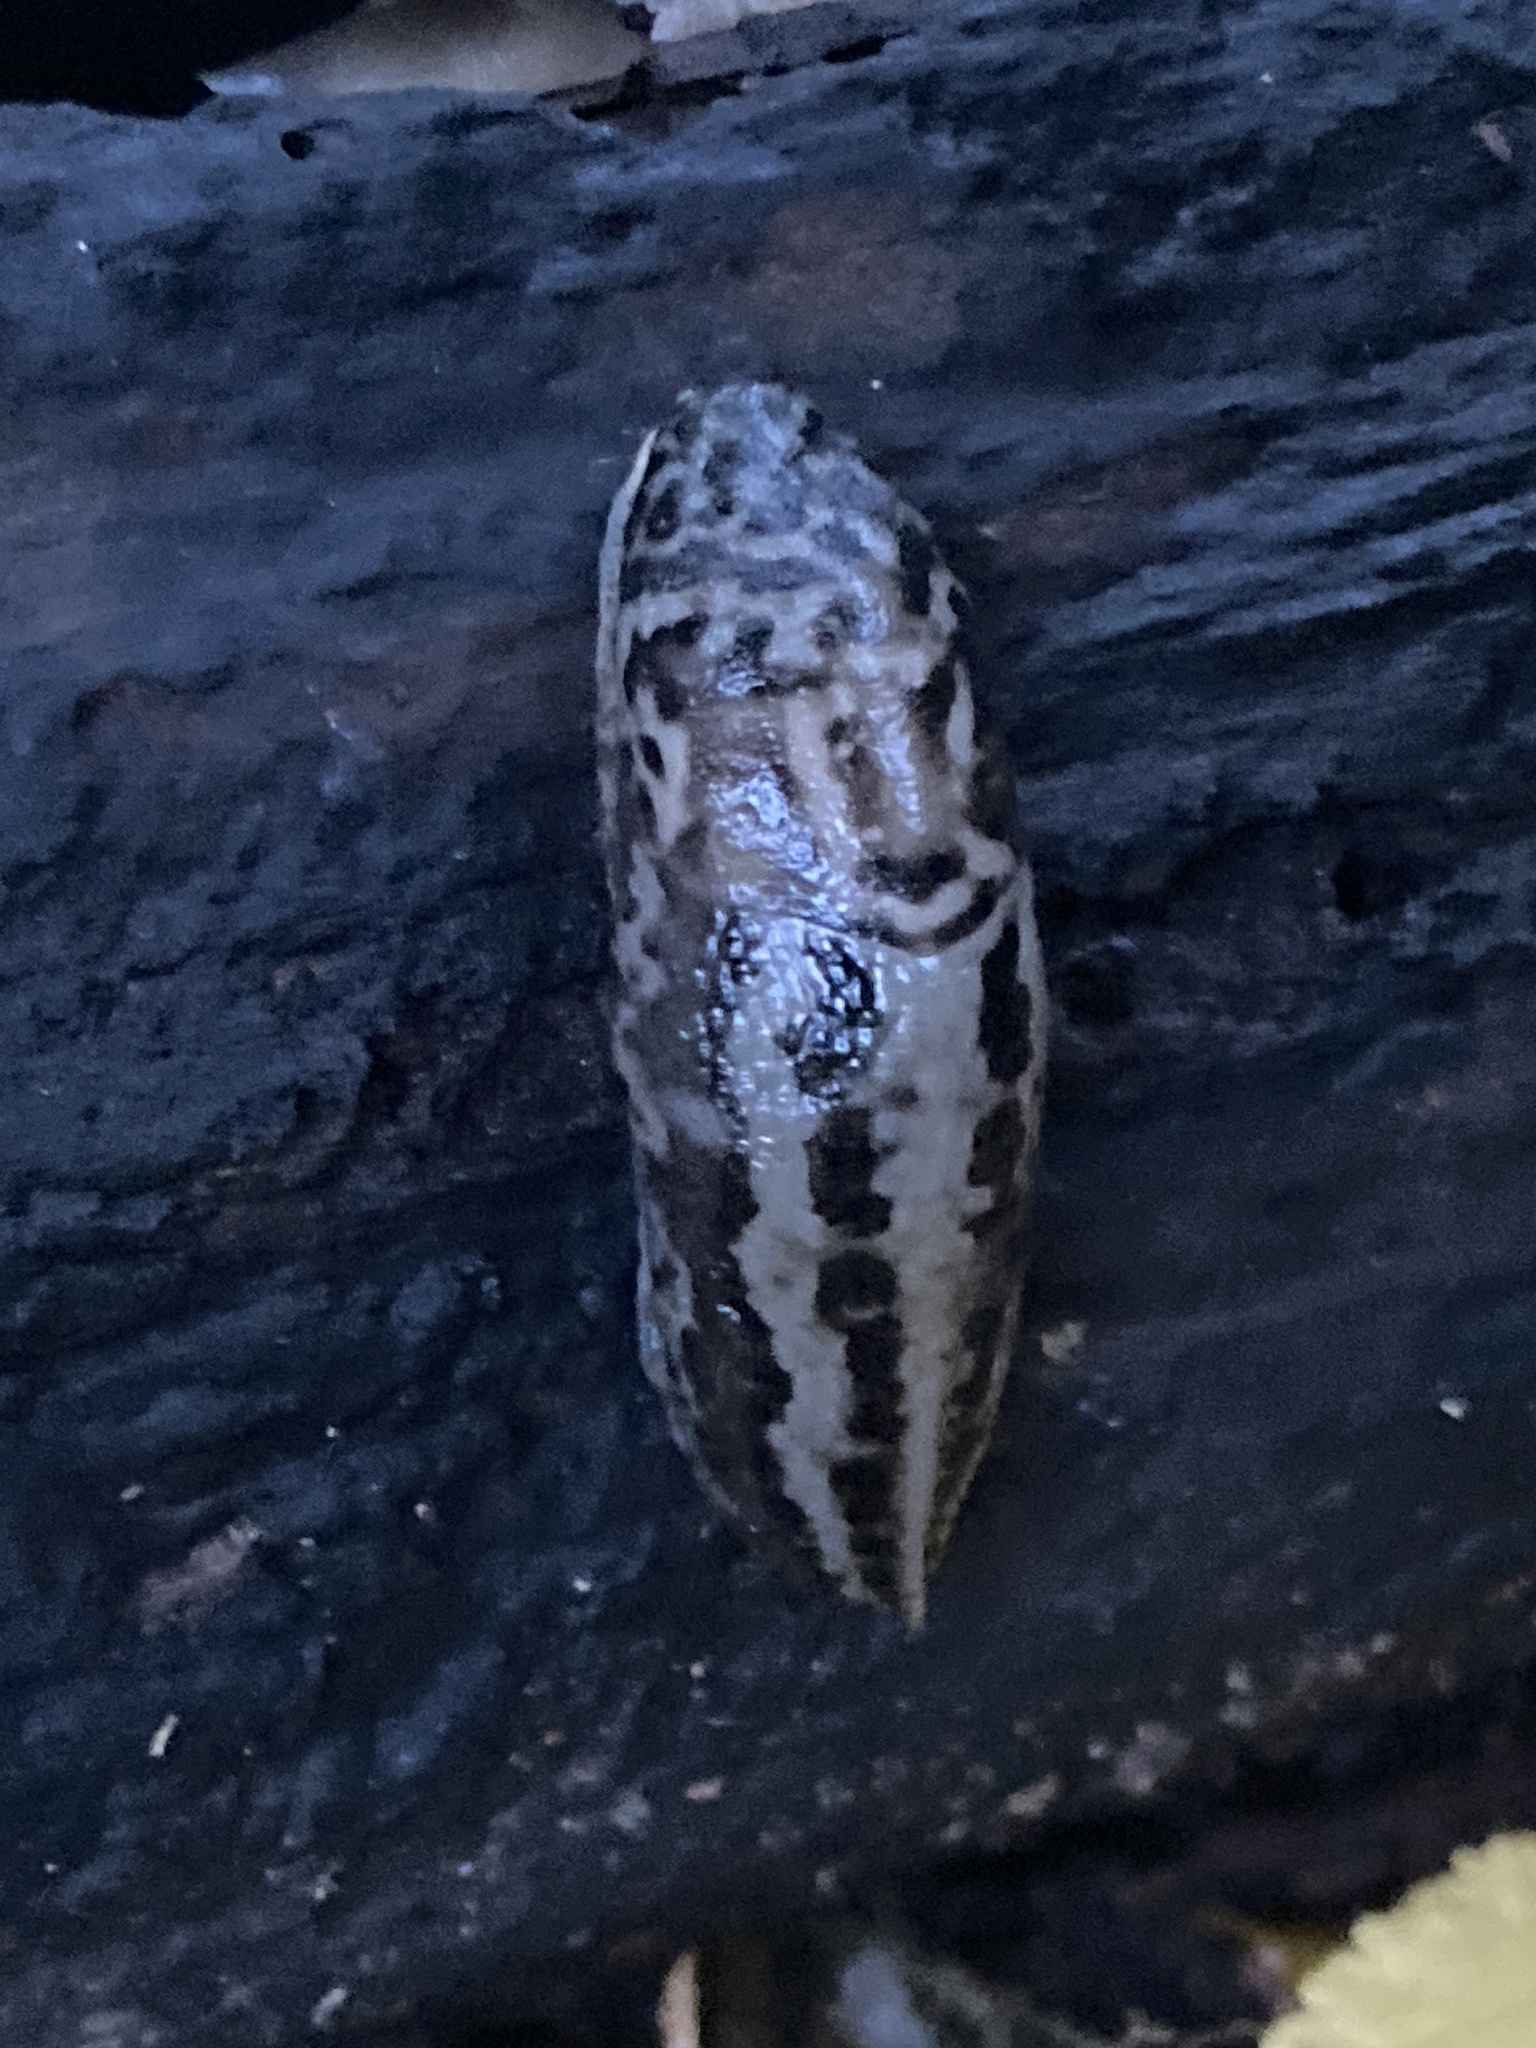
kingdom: Animalia
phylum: Mollusca
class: Gastropoda
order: Stylommatophora
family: Limacidae
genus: Limax
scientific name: Limax maximus
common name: Great grey slug
